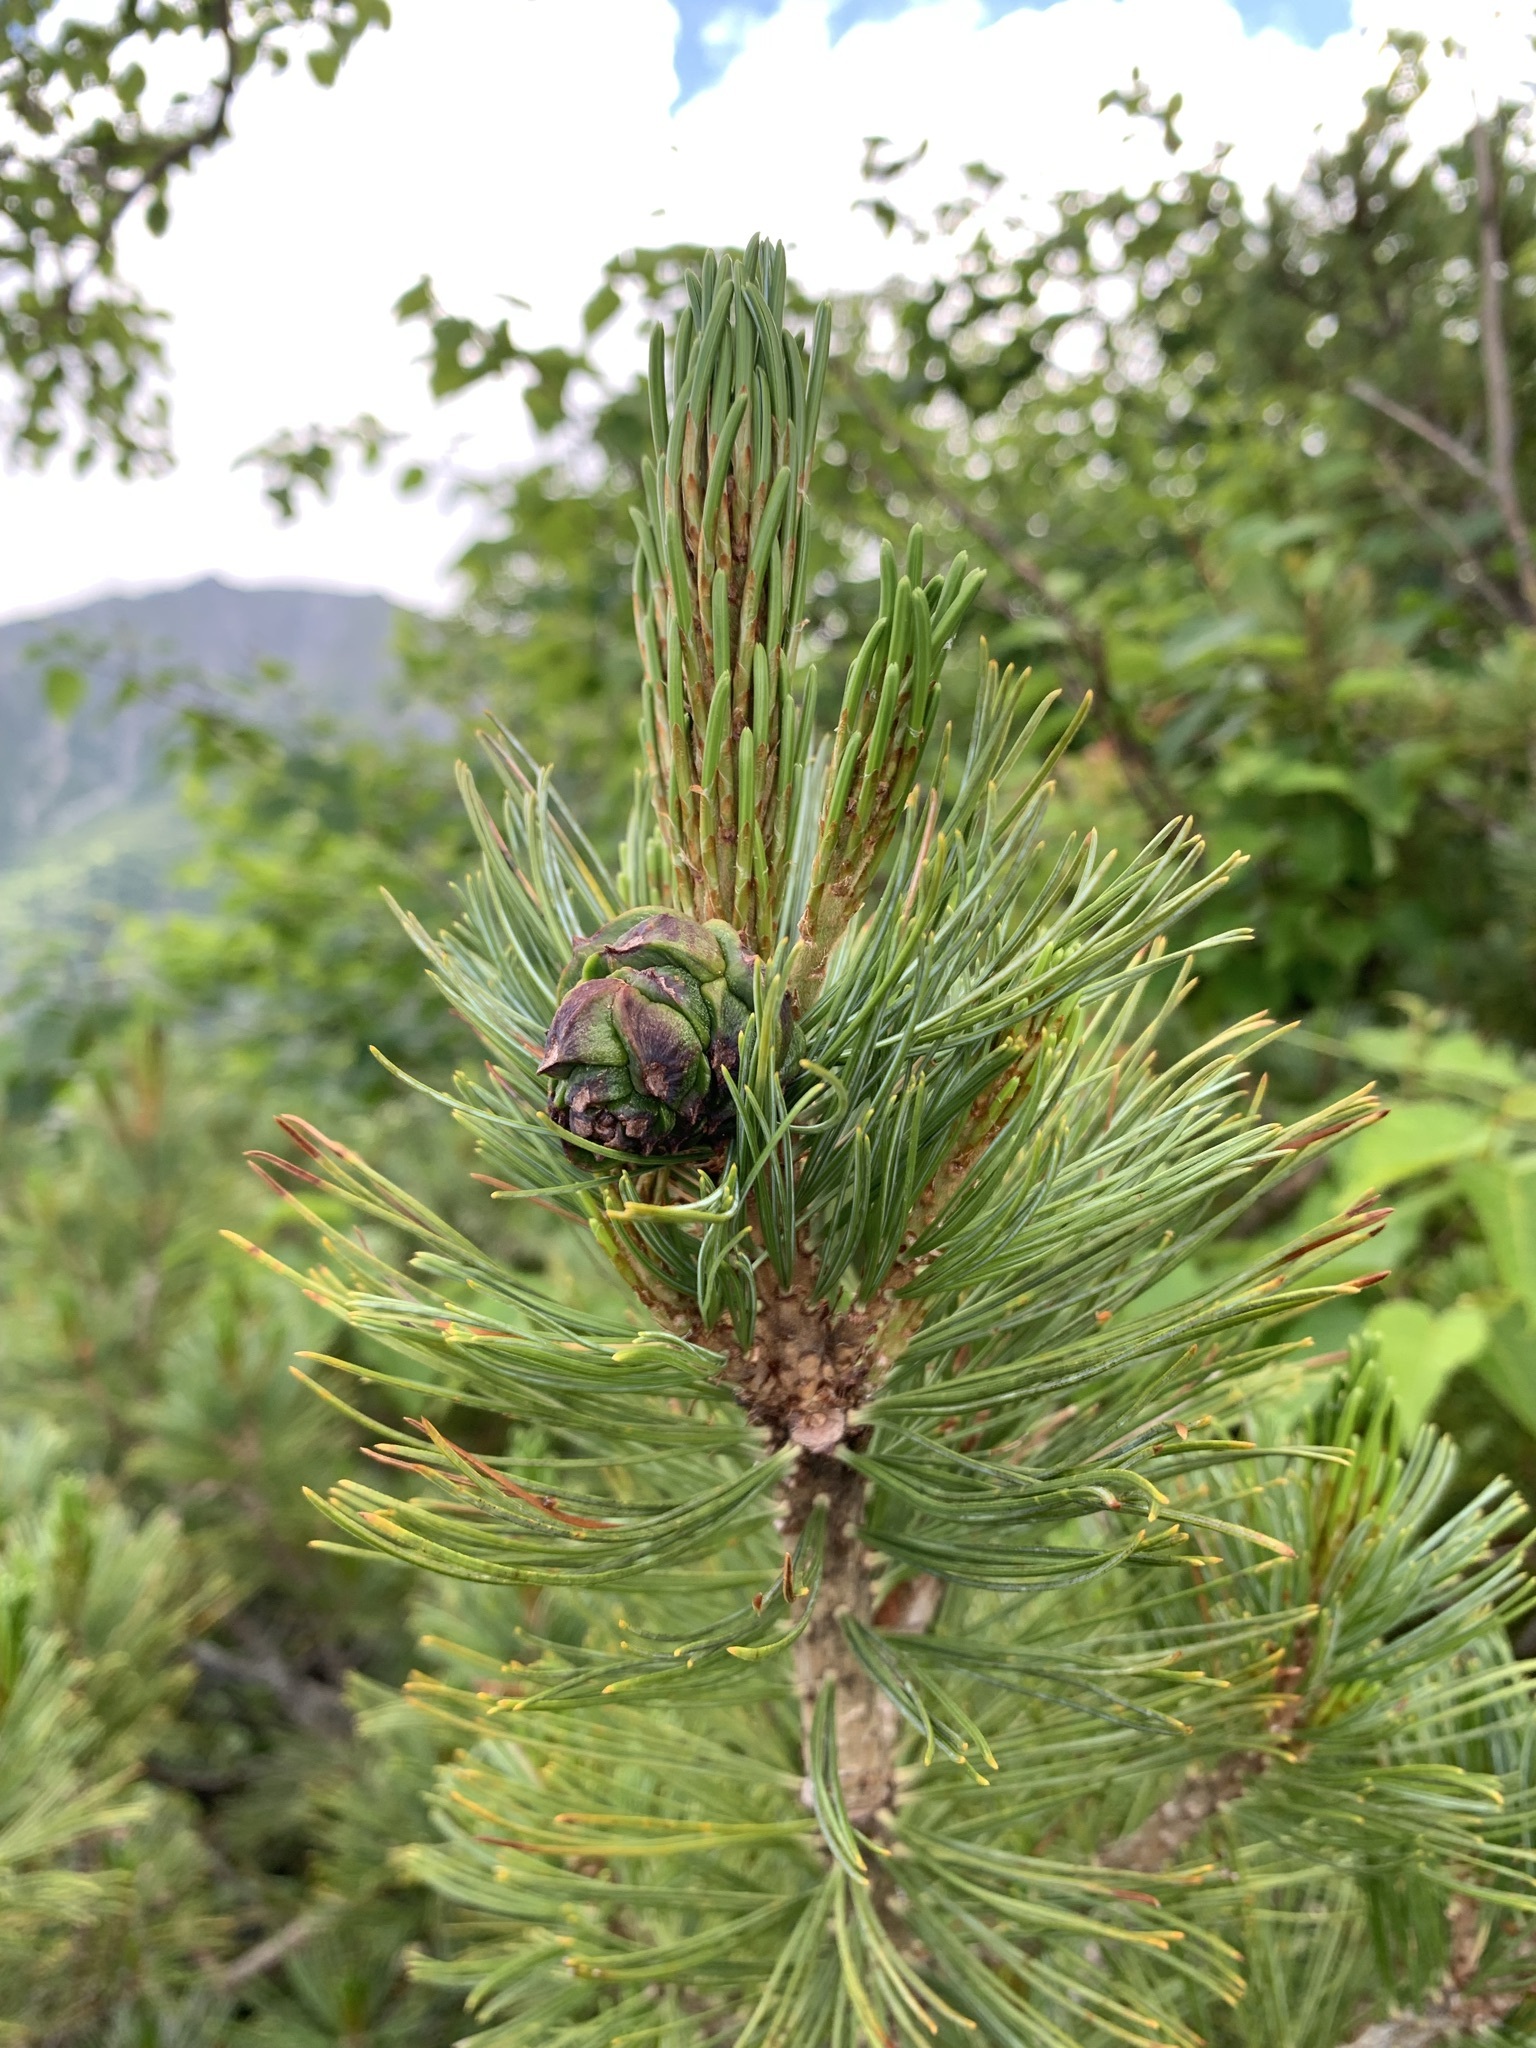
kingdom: Plantae
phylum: Tracheophyta
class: Pinopsida
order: Pinales
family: Pinaceae
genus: Pinus
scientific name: Pinus pumila
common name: Dwarf siberian pine
